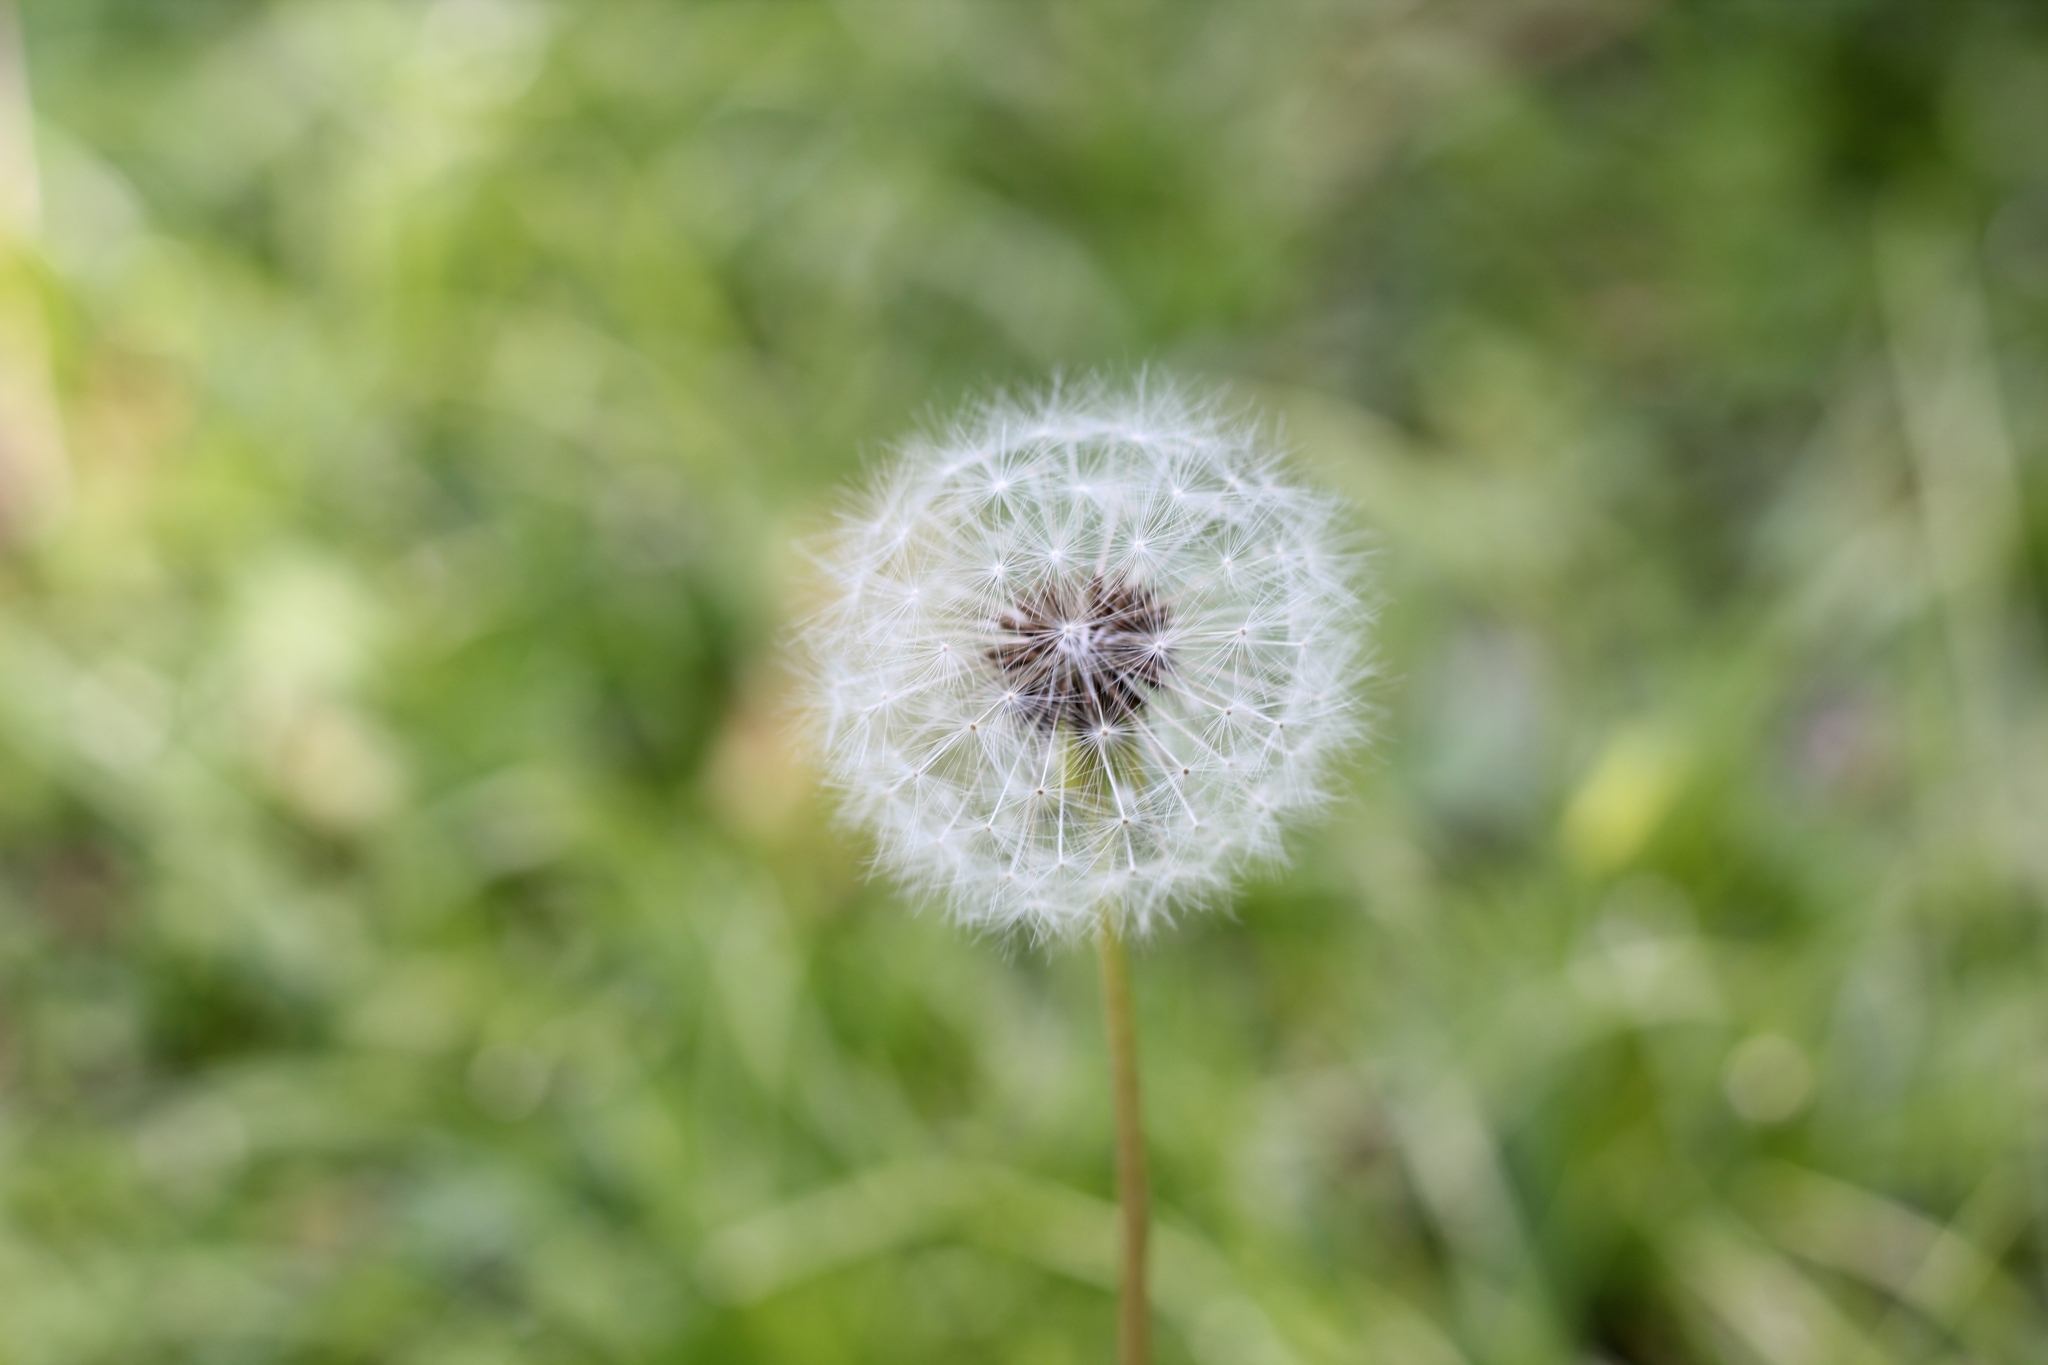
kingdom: Plantae
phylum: Tracheophyta
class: Magnoliopsida
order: Asterales
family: Asteraceae
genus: Taraxacum
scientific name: Taraxacum officinale
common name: Common dandelion
